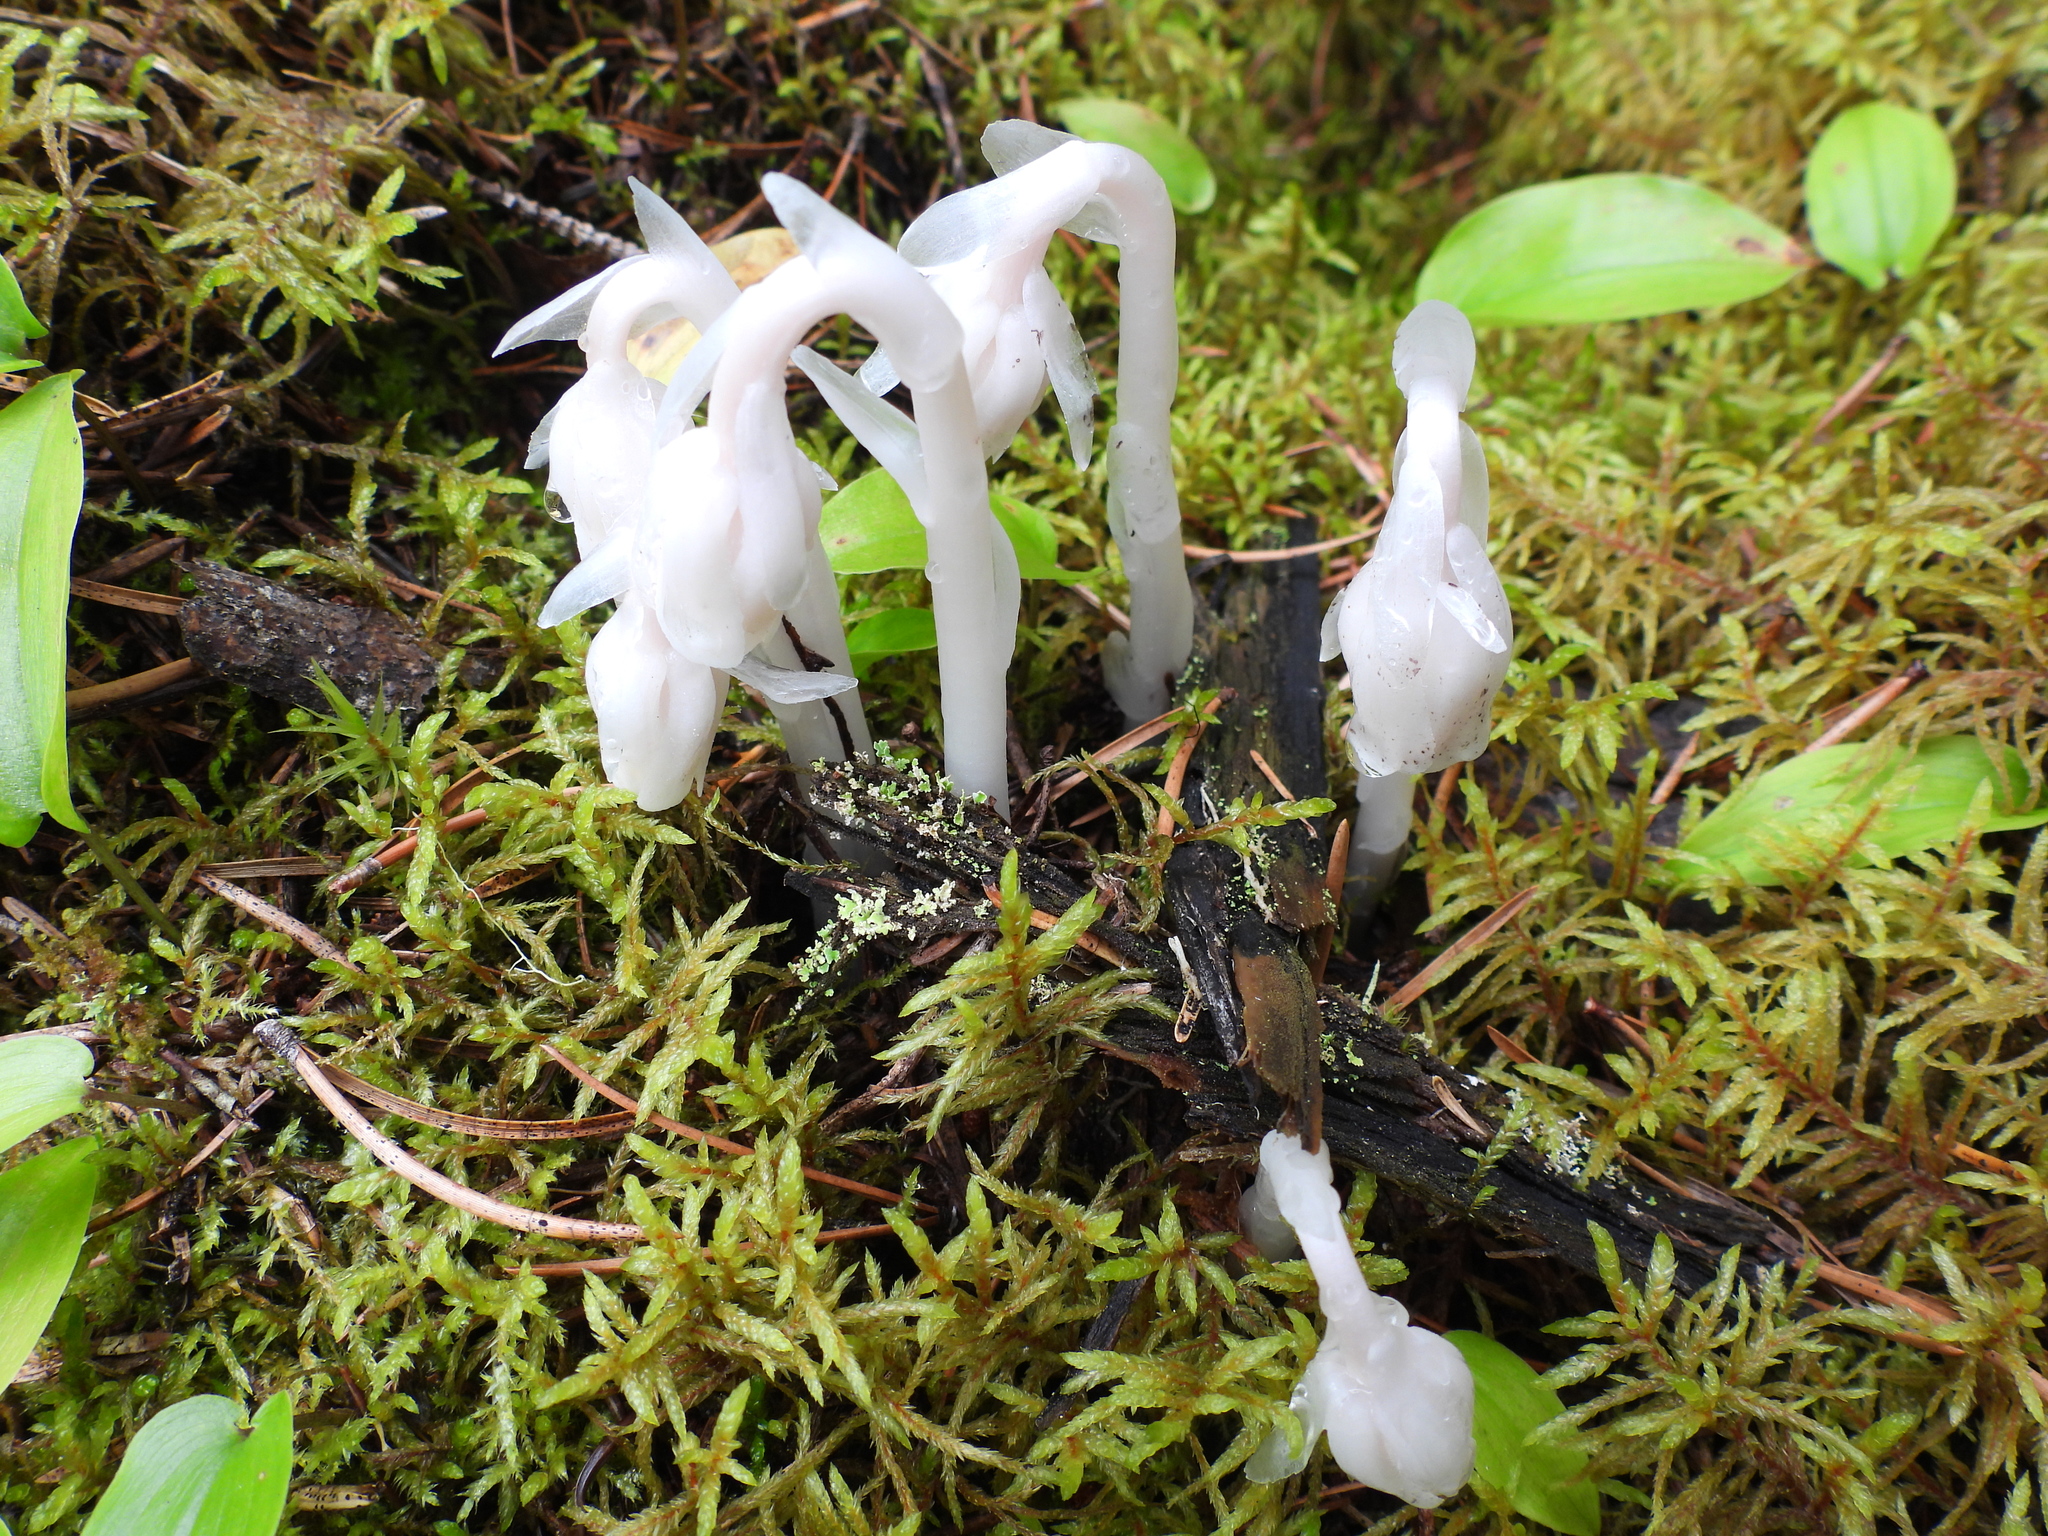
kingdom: Plantae
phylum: Tracheophyta
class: Magnoliopsida
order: Ericales
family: Ericaceae
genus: Monotropa
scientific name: Monotropa uniflora
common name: Convulsion root
